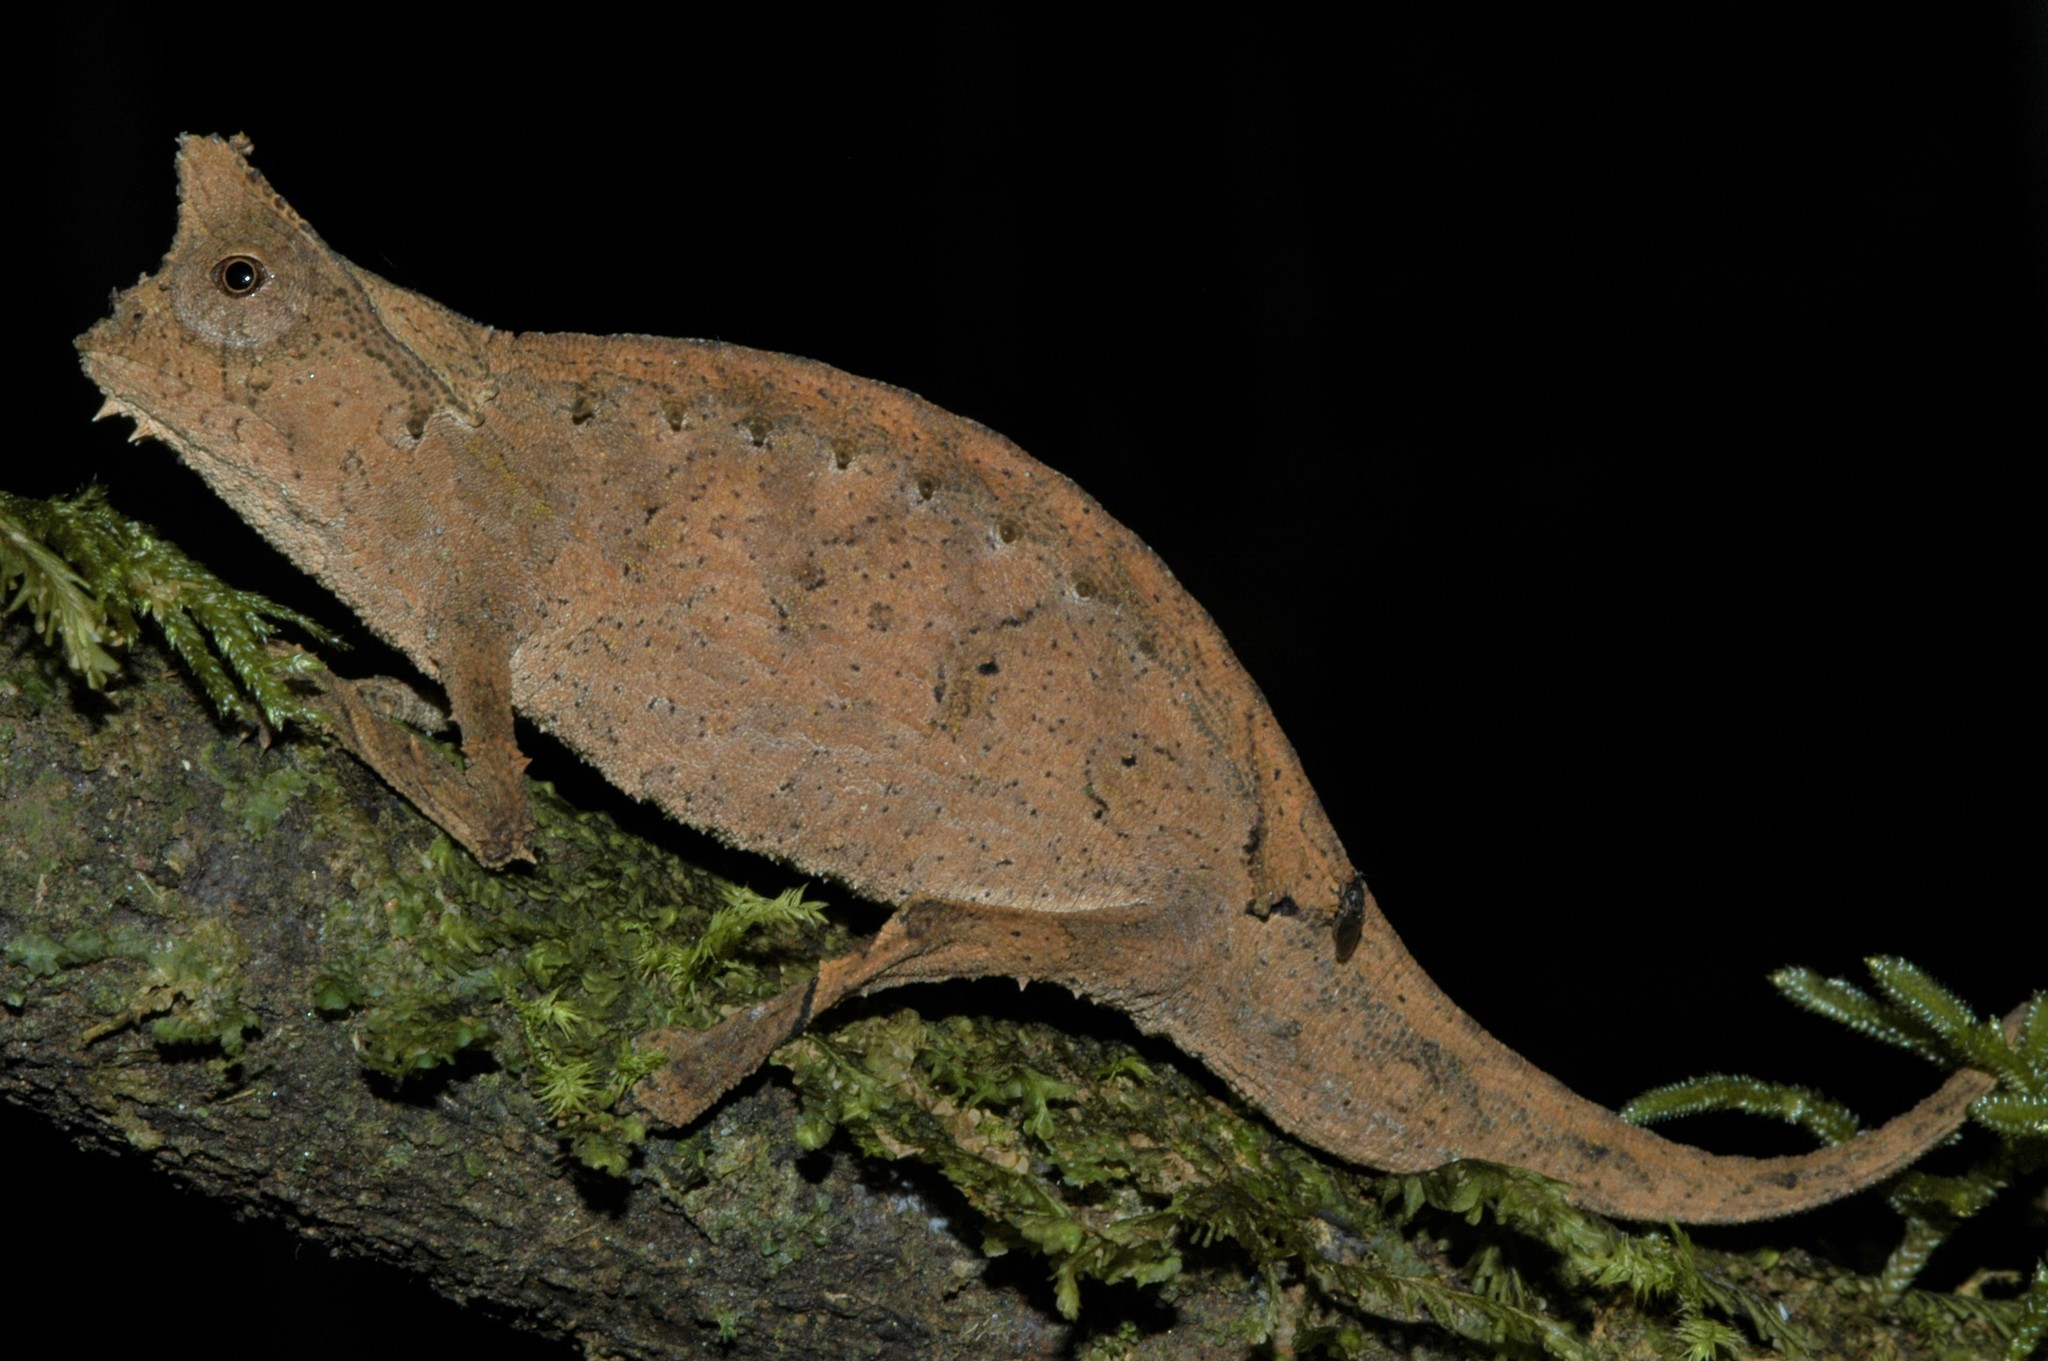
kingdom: Animalia
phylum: Chordata
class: Squamata
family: Chamaeleonidae
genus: Brookesia
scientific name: Brookesia superciliaris
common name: Brown leaf chameleon
